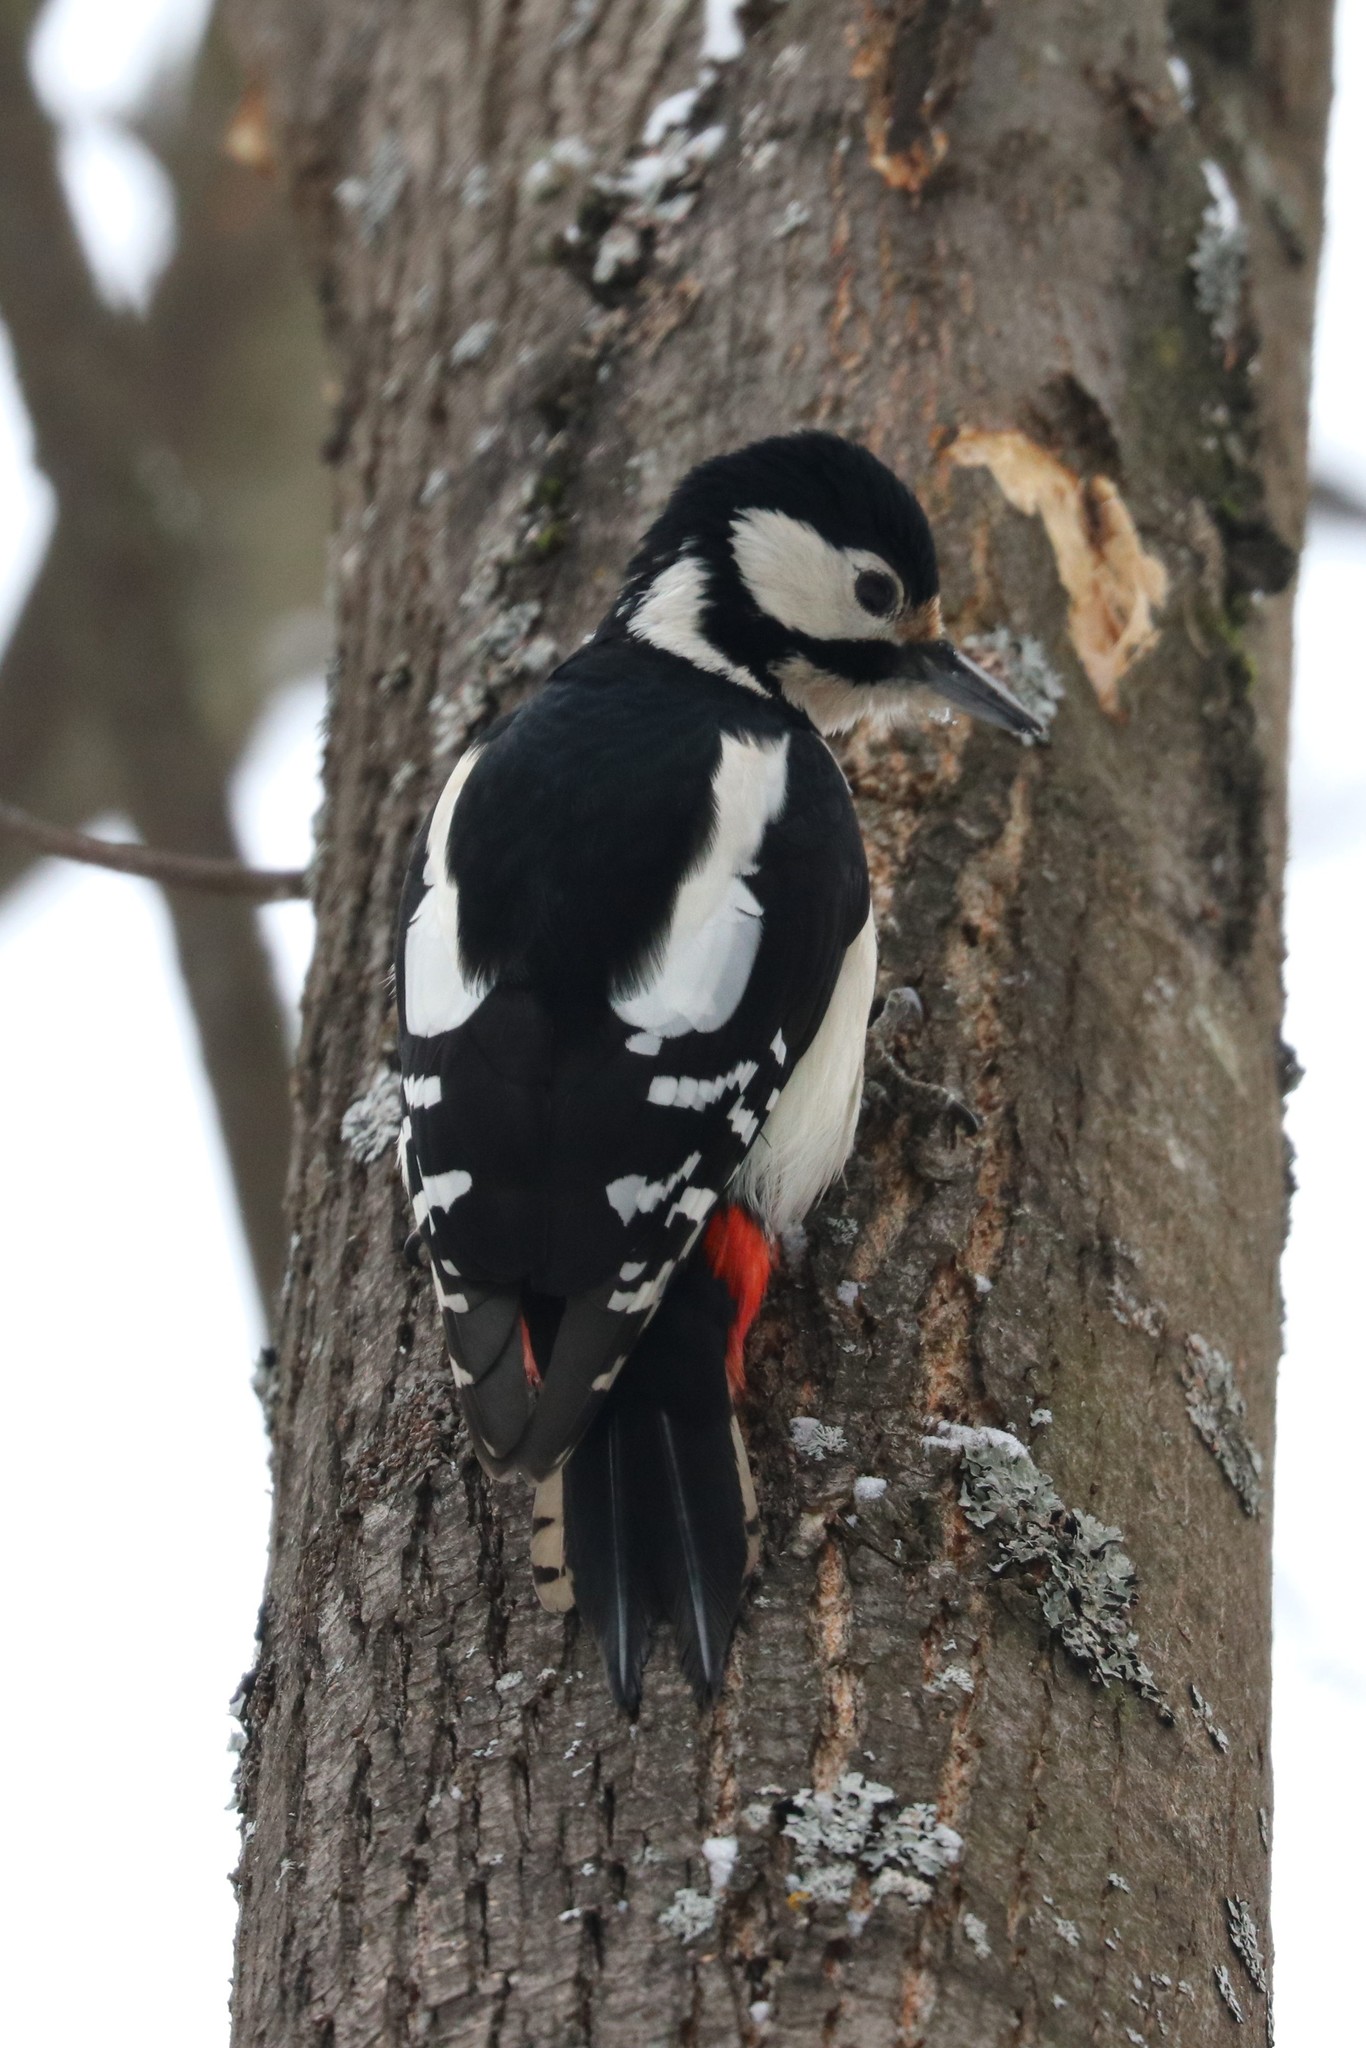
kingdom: Animalia
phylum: Chordata
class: Aves
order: Piciformes
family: Picidae
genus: Dendrocopos
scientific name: Dendrocopos major
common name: Great spotted woodpecker
